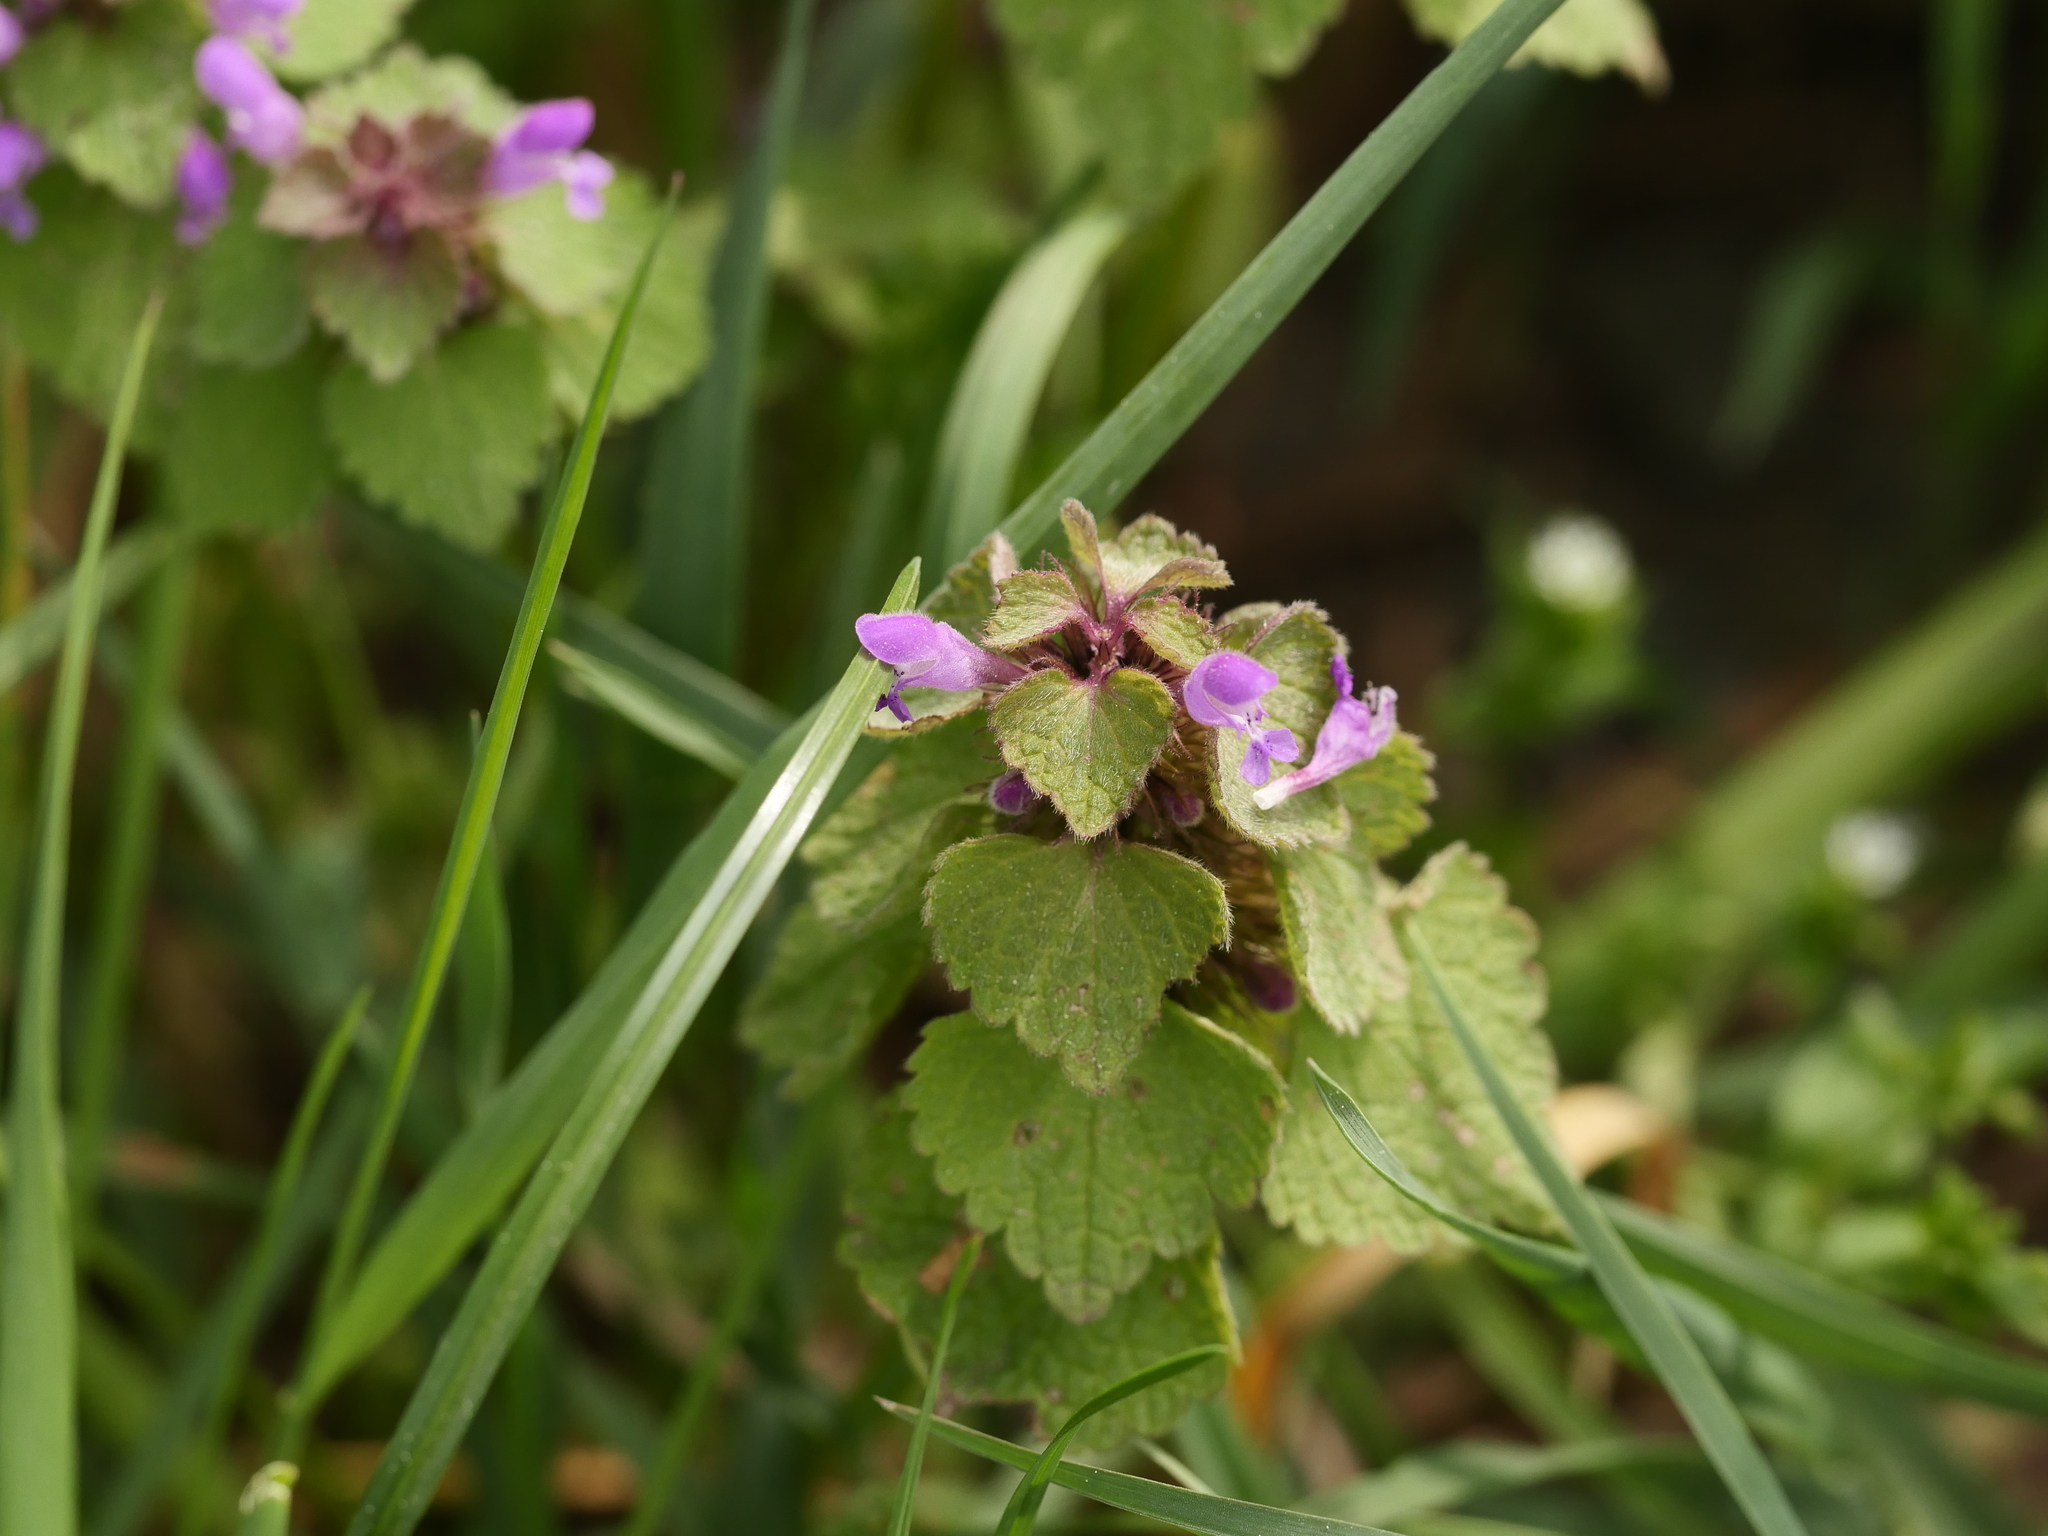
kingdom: Plantae
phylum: Tracheophyta
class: Magnoliopsida
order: Lamiales
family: Lamiaceae
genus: Lamium
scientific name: Lamium purpureum
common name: Red dead-nettle
